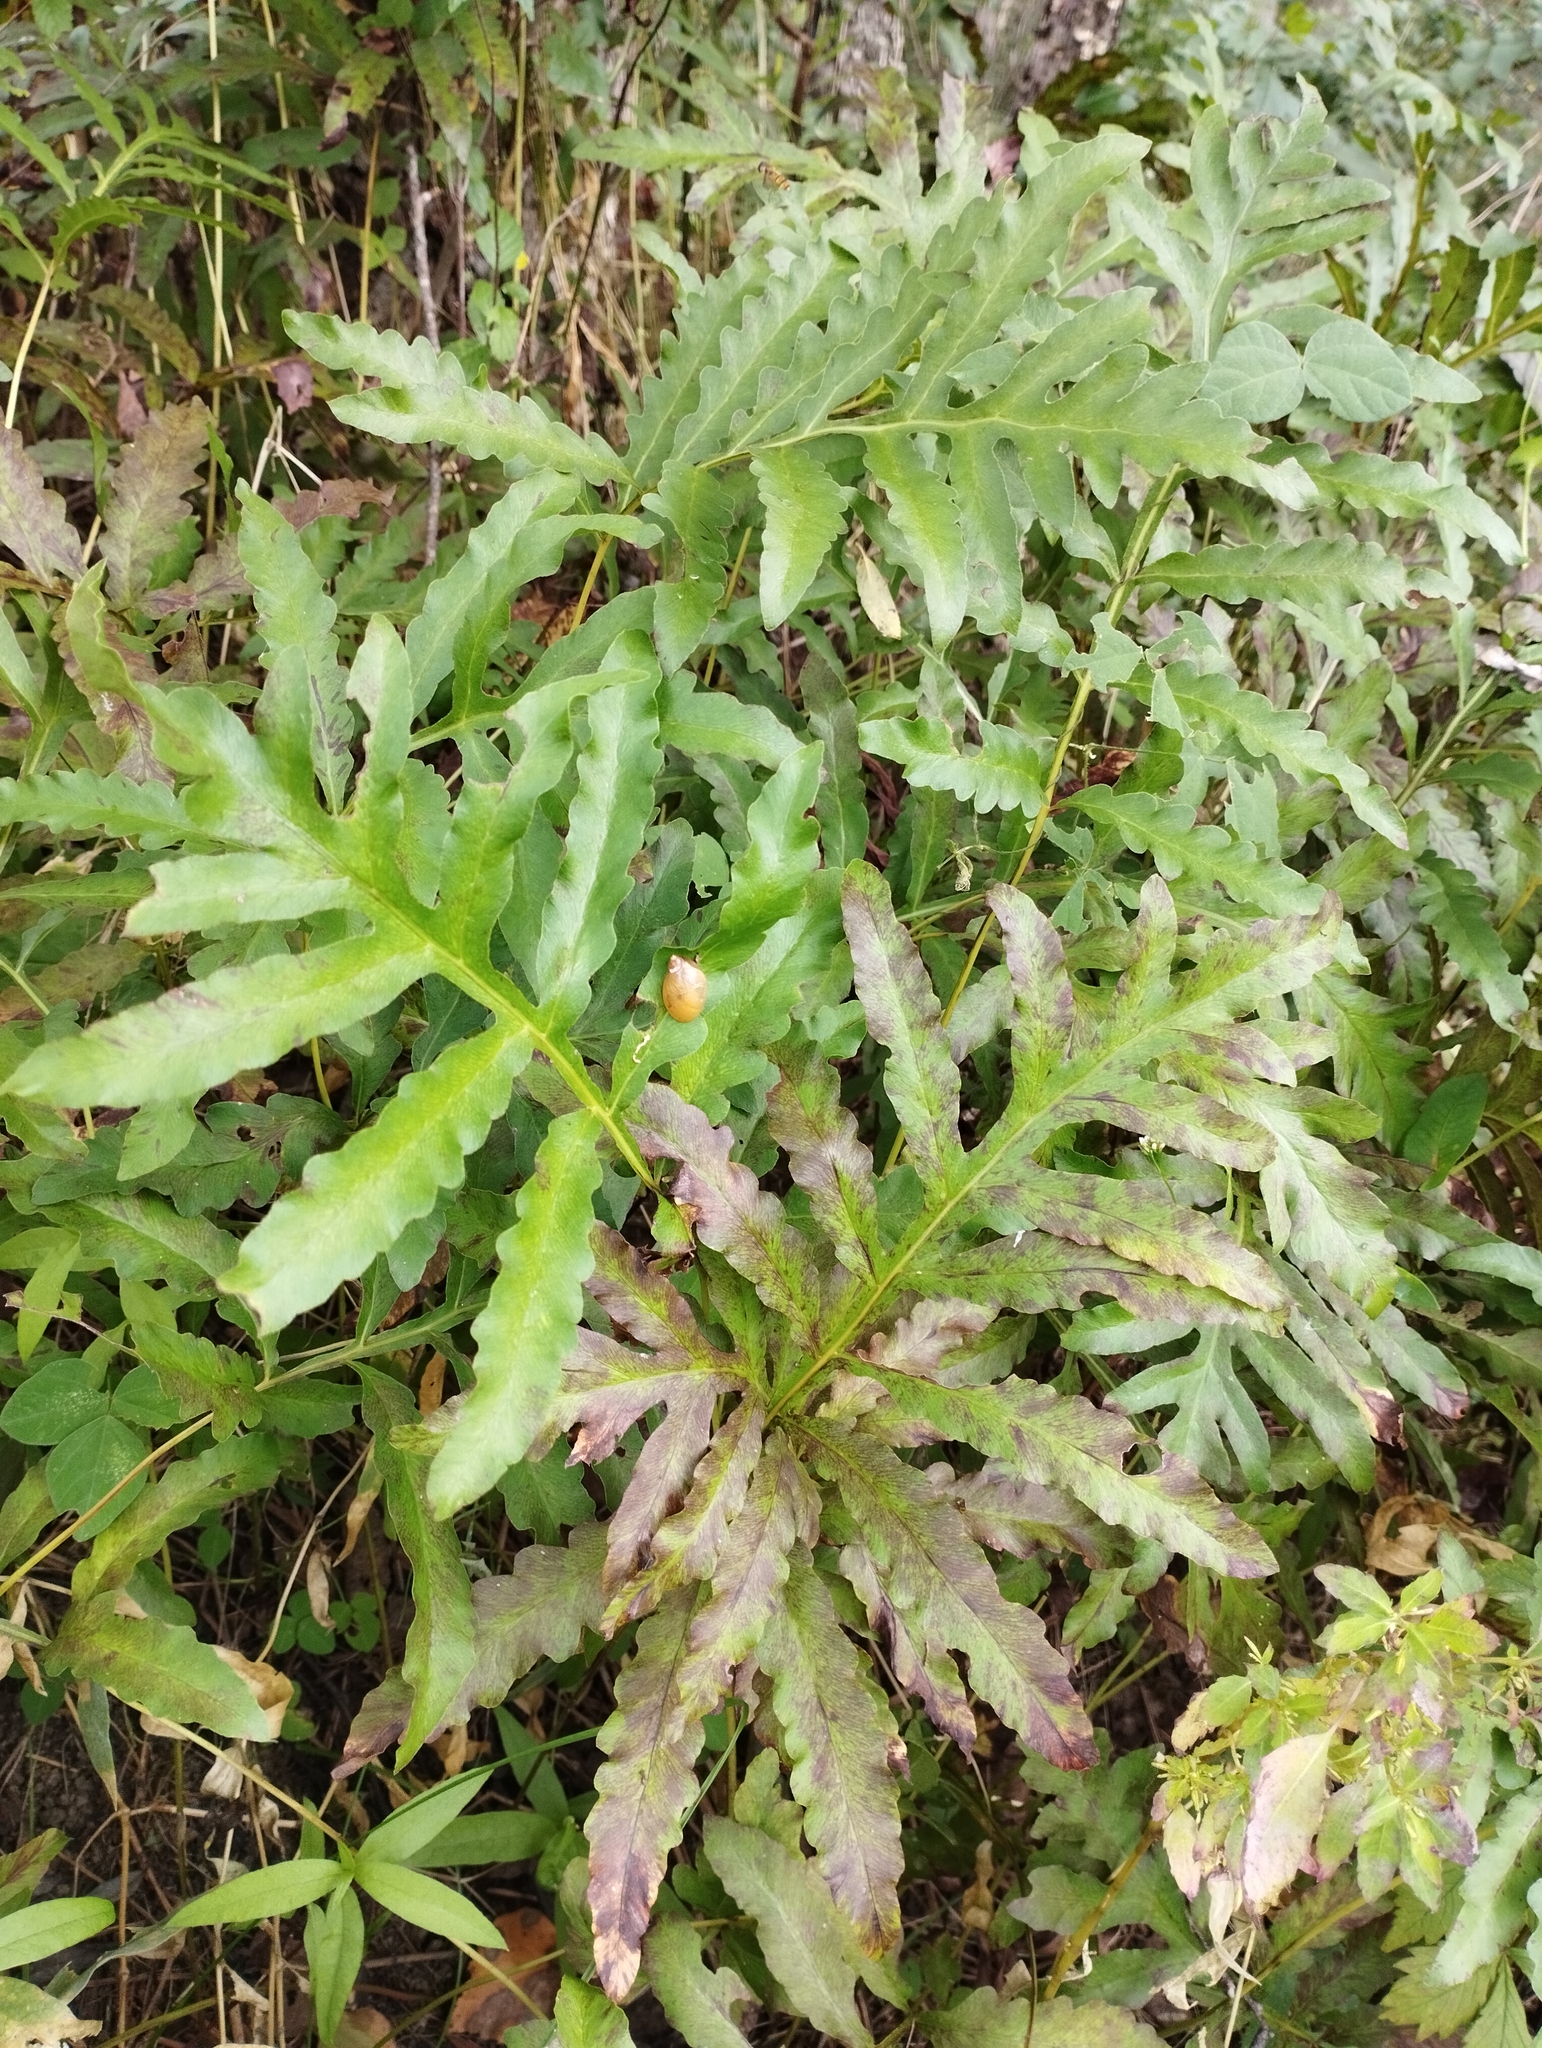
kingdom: Plantae
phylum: Tracheophyta
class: Polypodiopsida
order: Polypodiales
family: Onocleaceae
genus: Onoclea
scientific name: Onoclea sensibilis
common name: Sensitive fern
